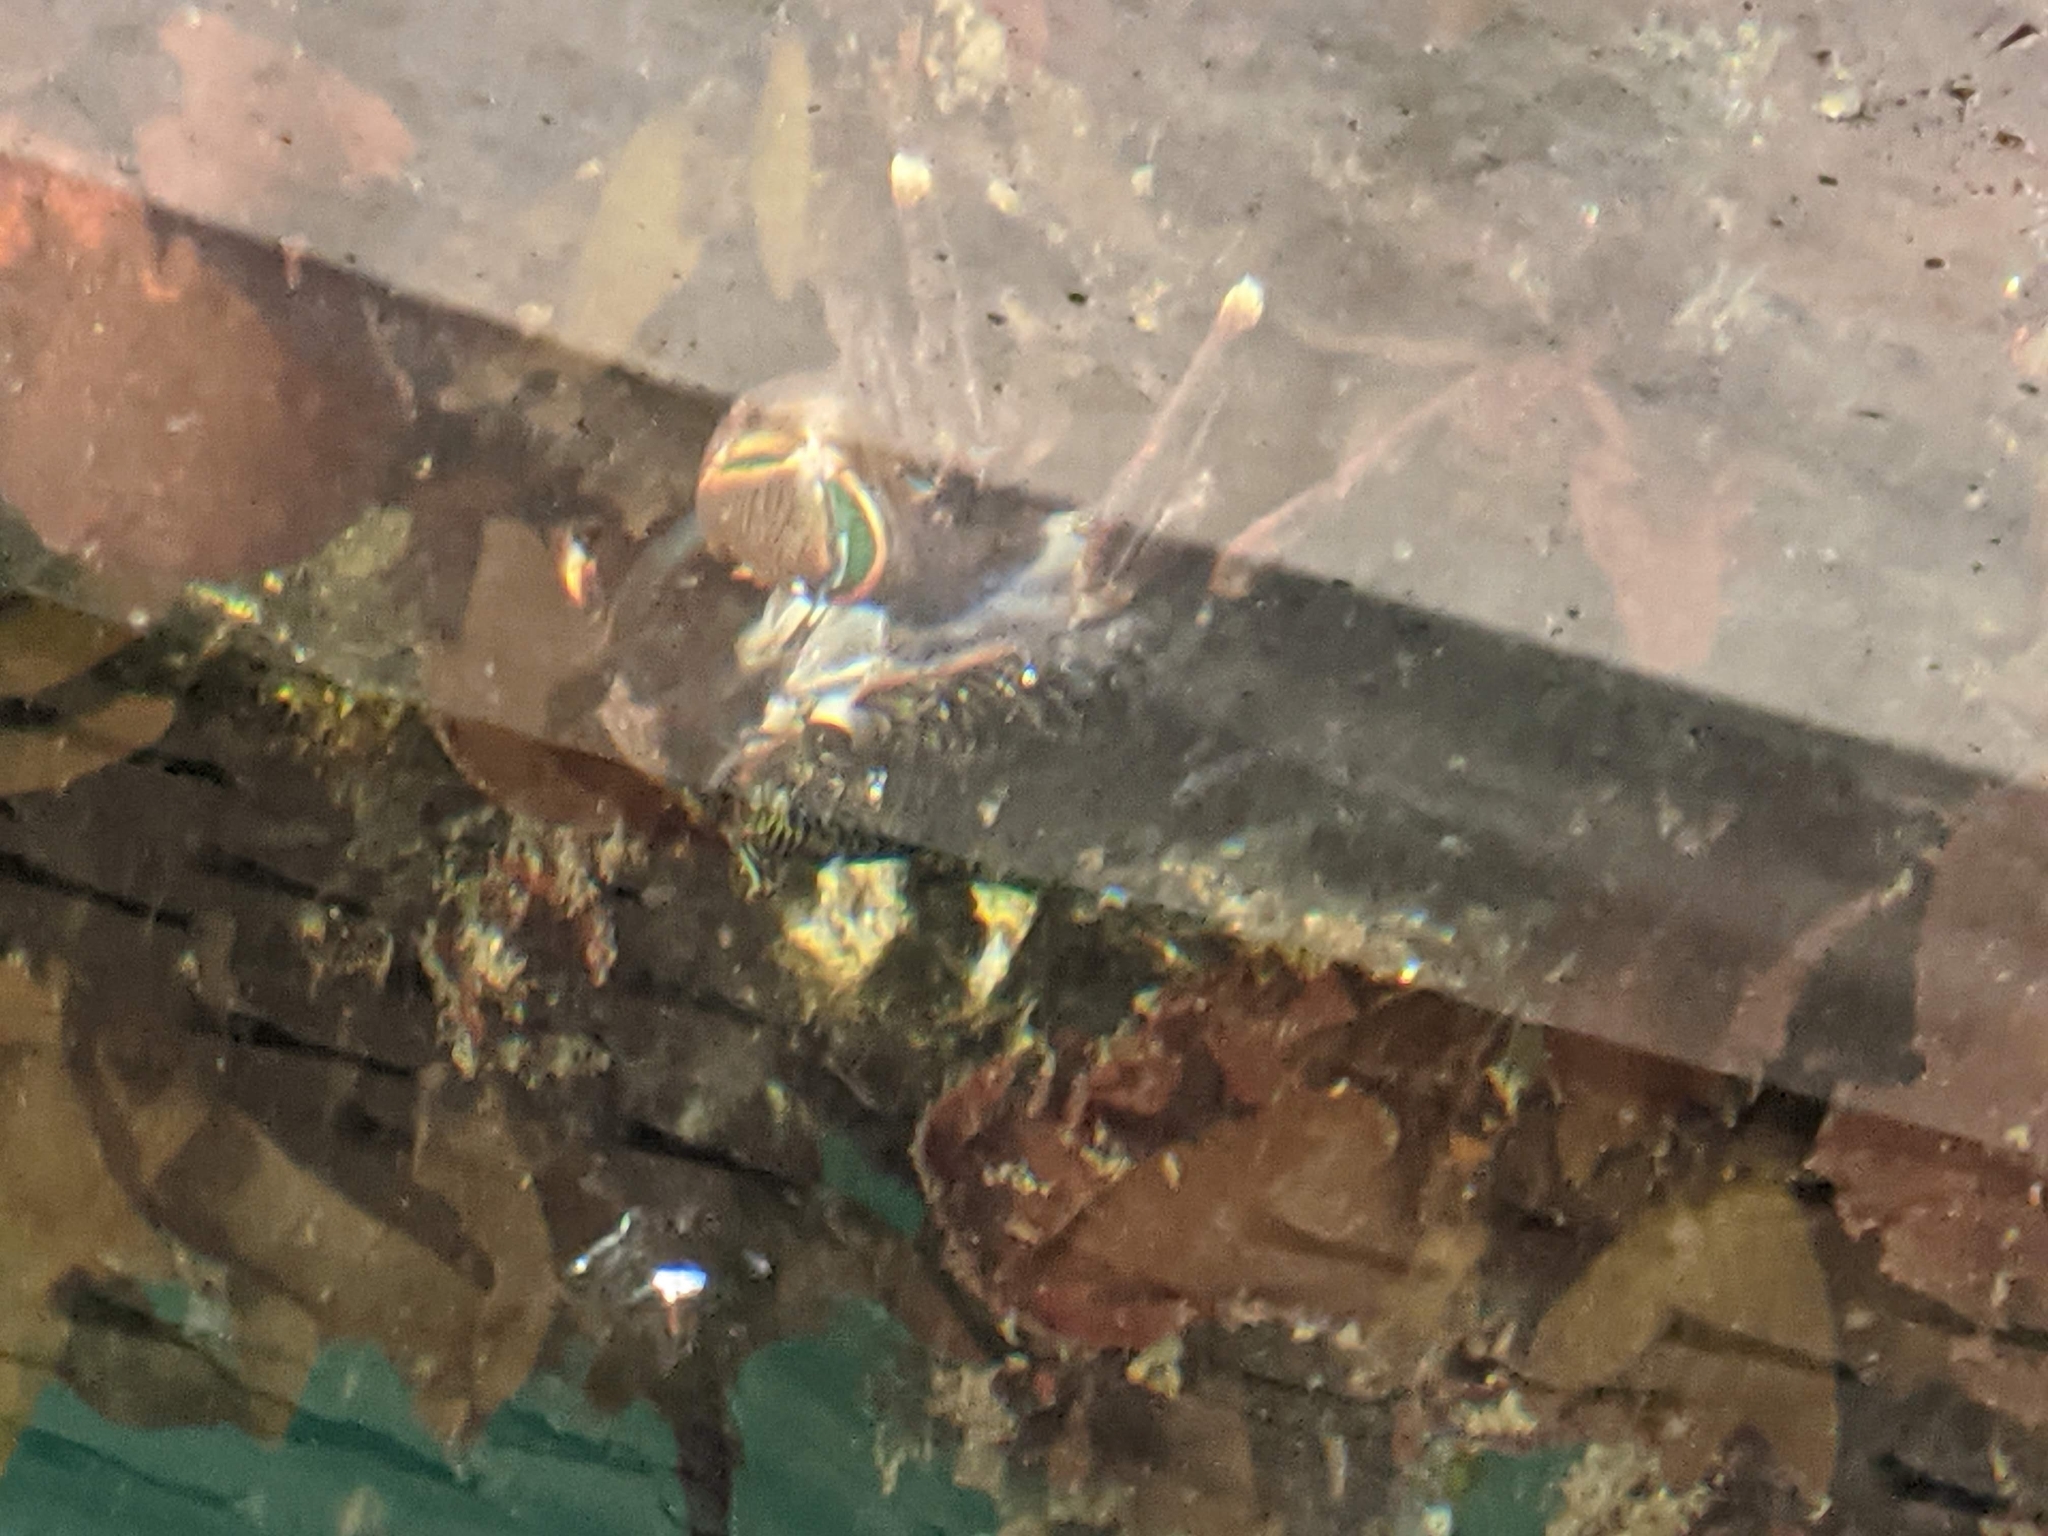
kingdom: Animalia
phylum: Arthropoda
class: Malacostraca
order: Decapoda
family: Grapsidae
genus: Pachygrapsus
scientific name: Pachygrapsus crassipes
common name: Striped shore crab
